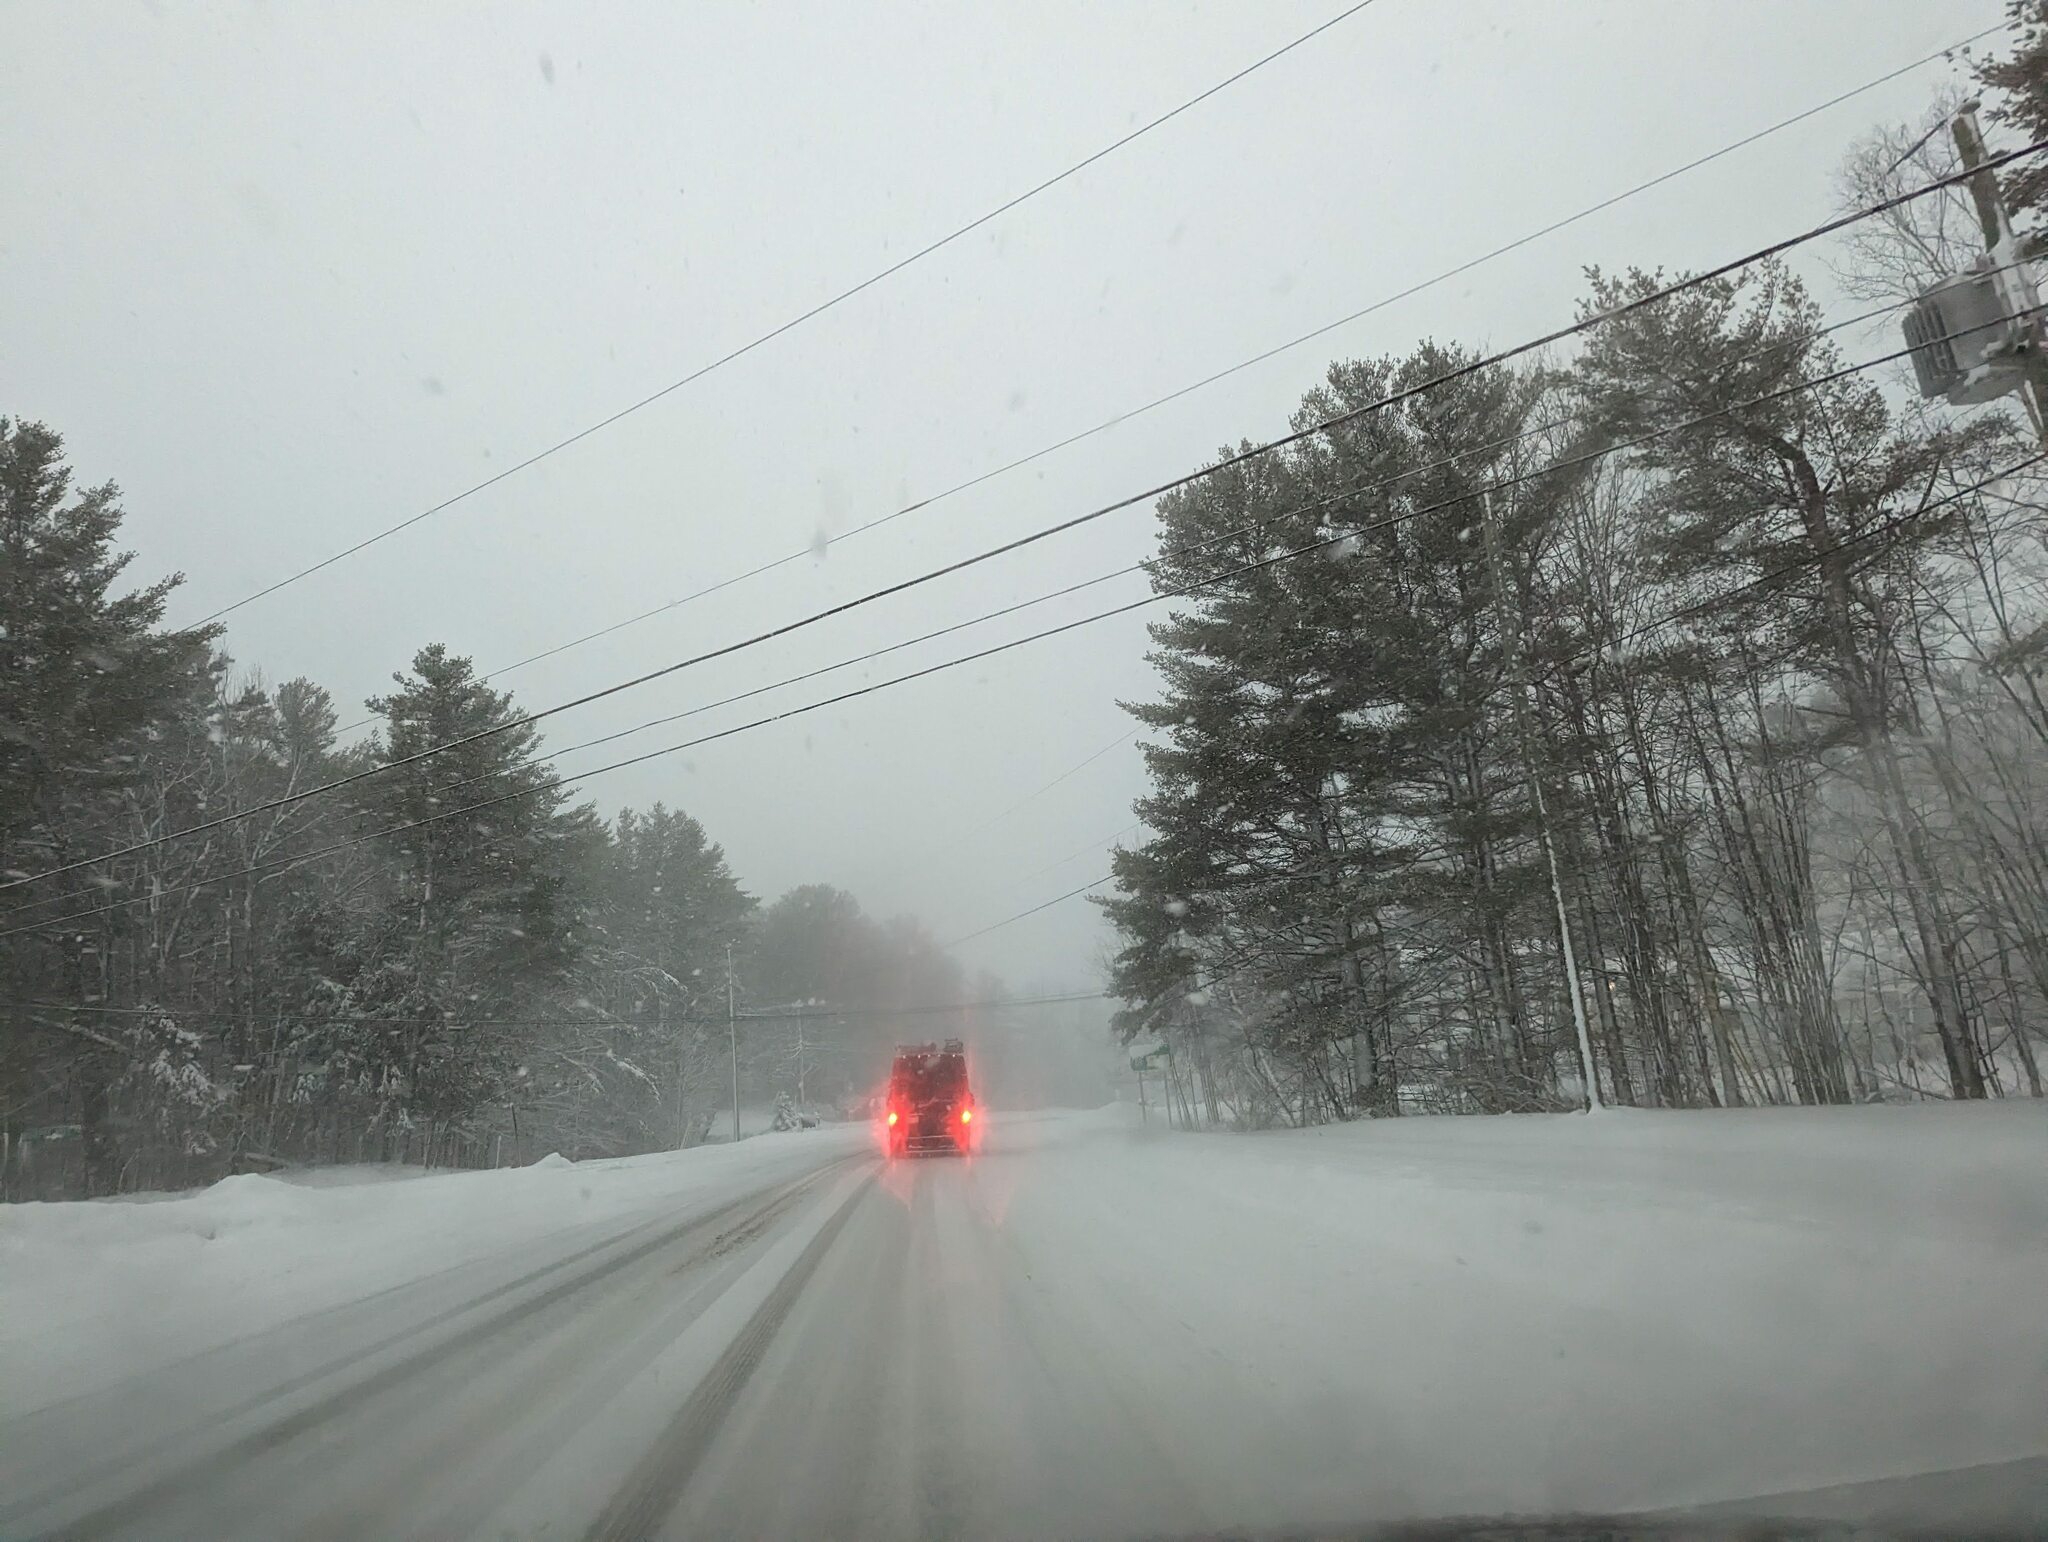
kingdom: Plantae
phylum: Tracheophyta
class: Pinopsida
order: Pinales
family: Pinaceae
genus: Pinus
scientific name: Pinus strobus
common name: Weymouth pine
